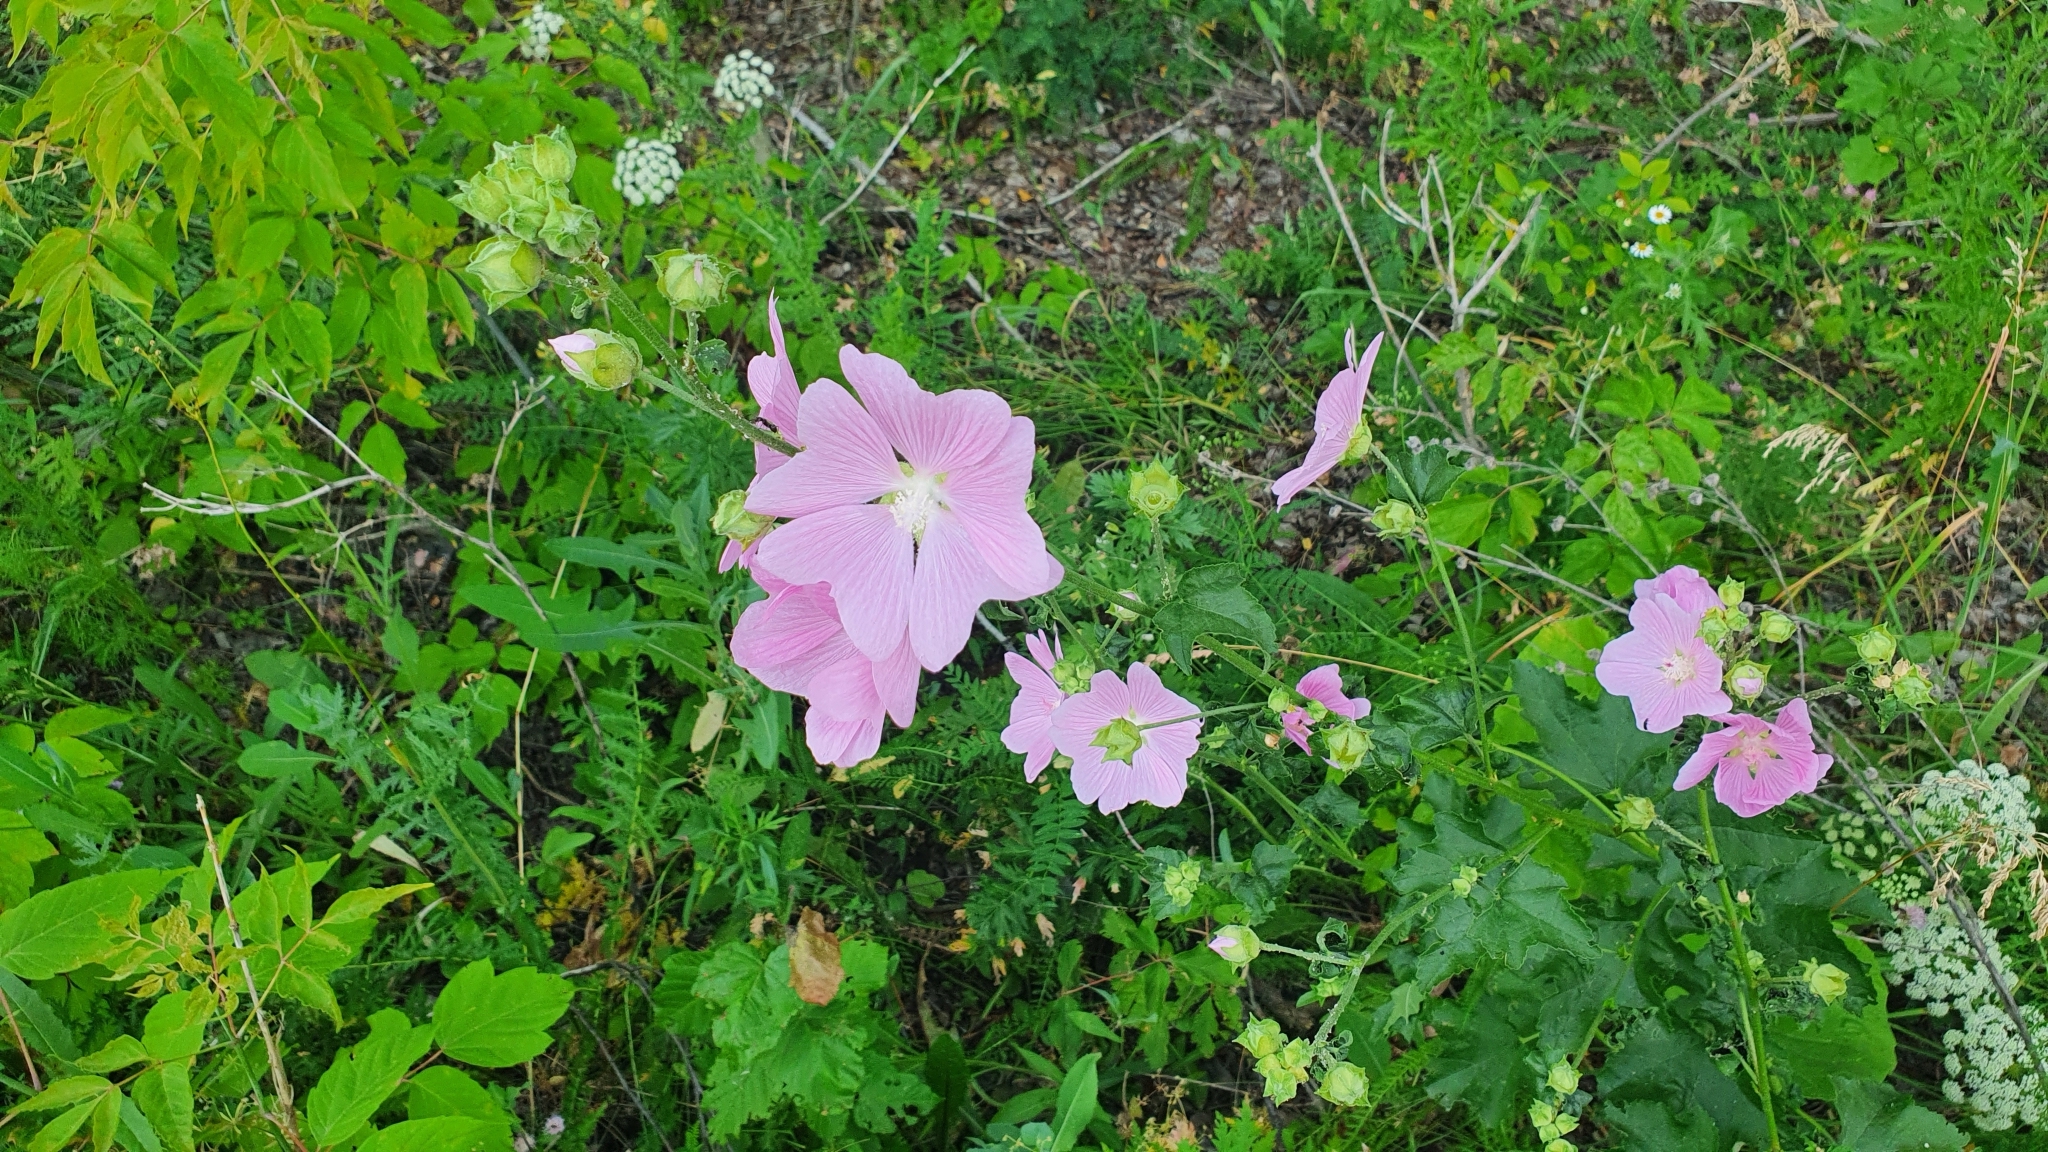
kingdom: Plantae
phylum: Tracheophyta
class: Magnoliopsida
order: Malvales
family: Malvaceae
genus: Malva
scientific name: Malva thuringiaca
